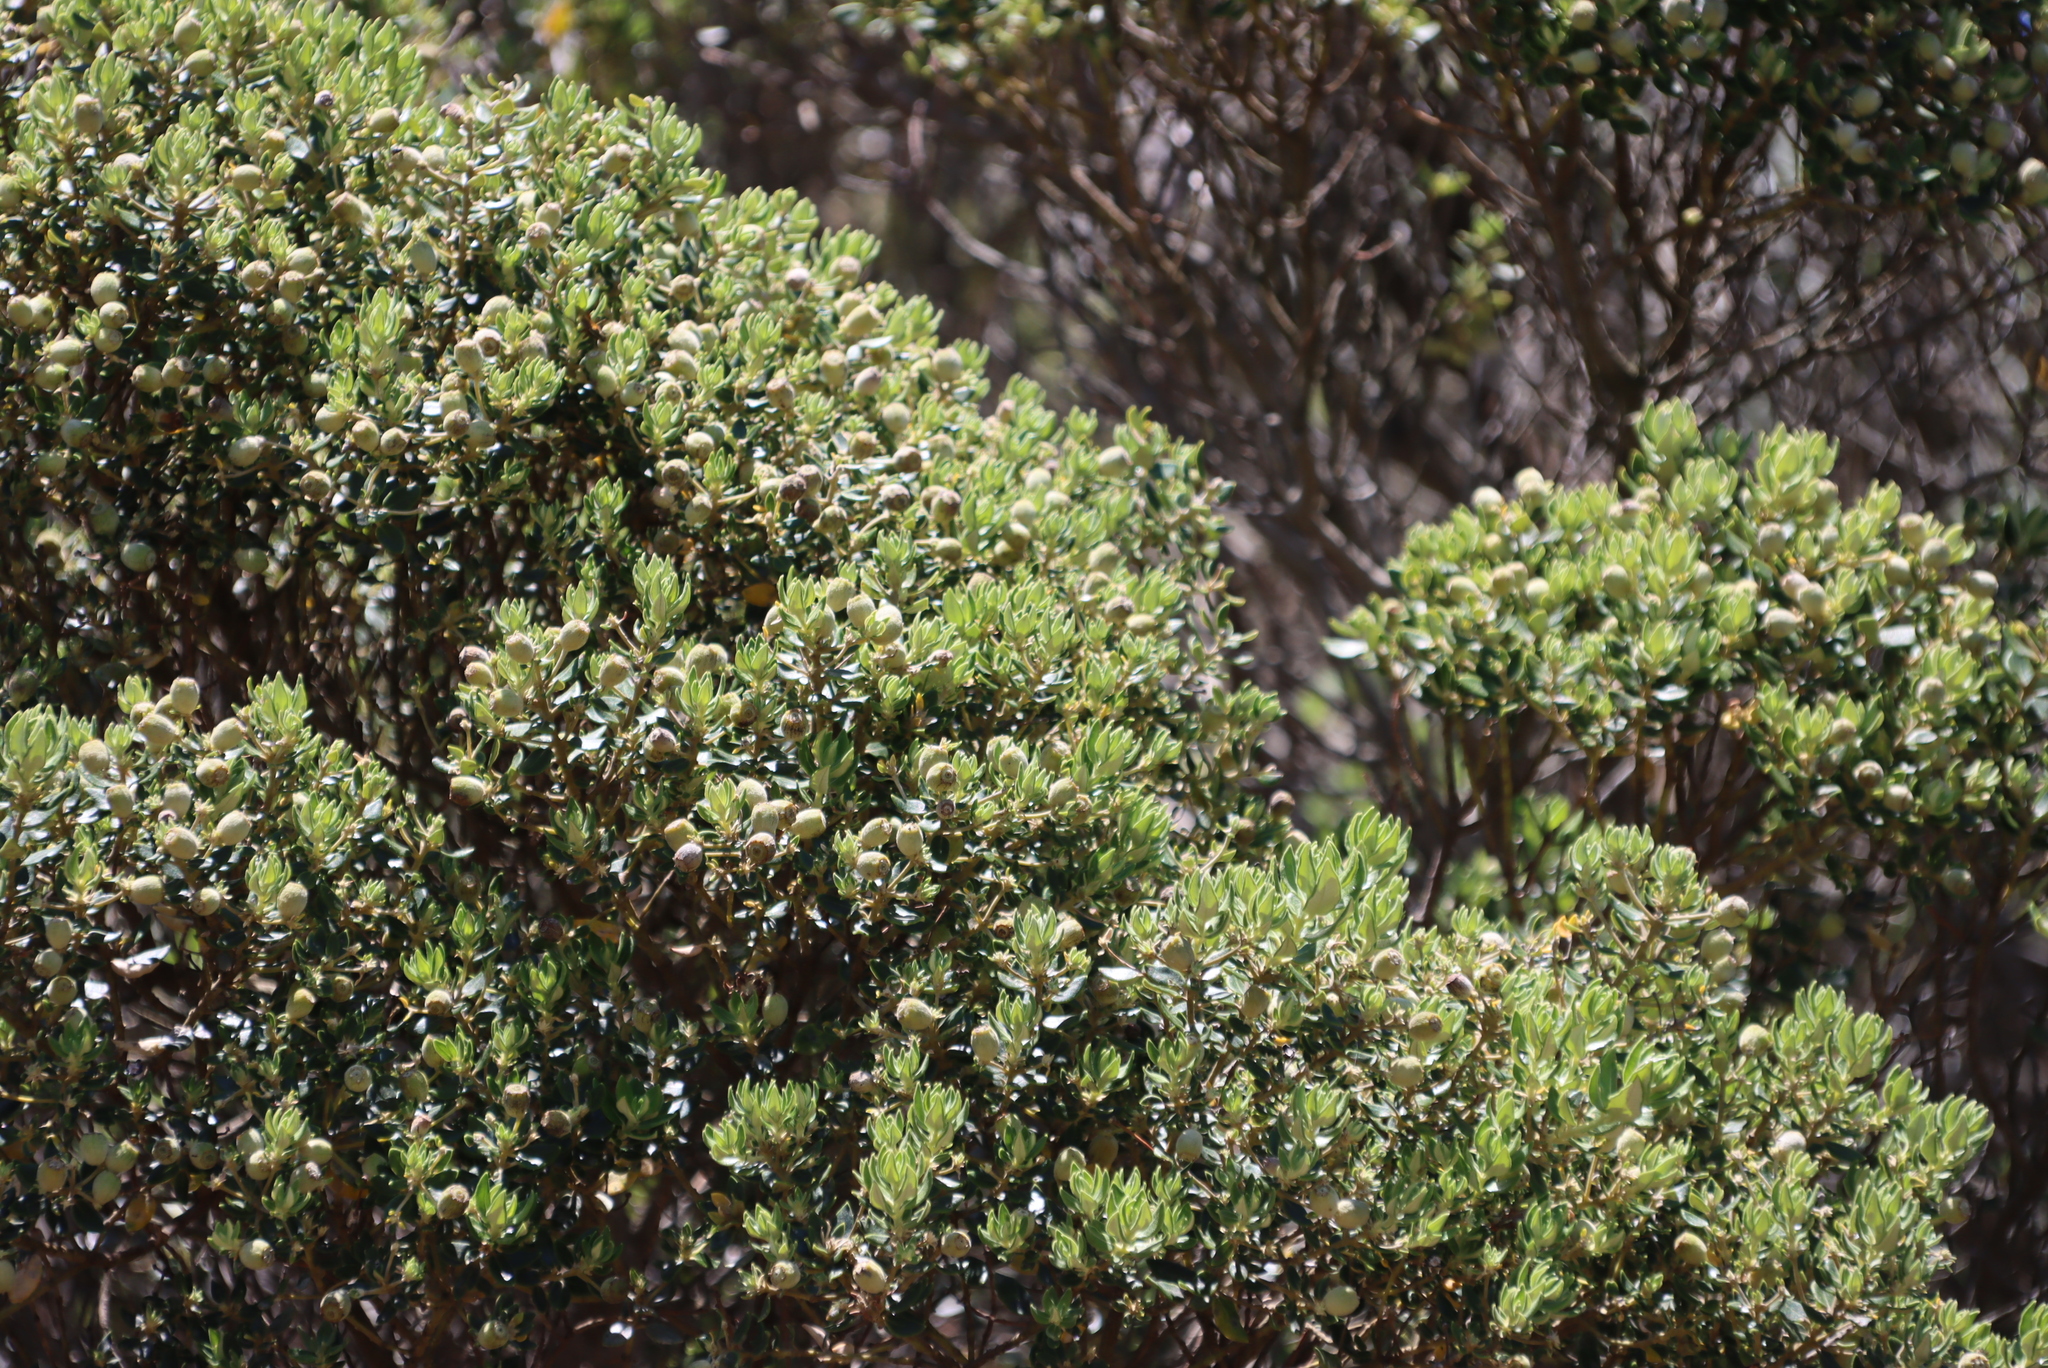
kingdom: Plantae
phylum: Tracheophyta
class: Magnoliopsida
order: Rosales
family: Rhamnaceae
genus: Phylica
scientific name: Phylica buxifolia
